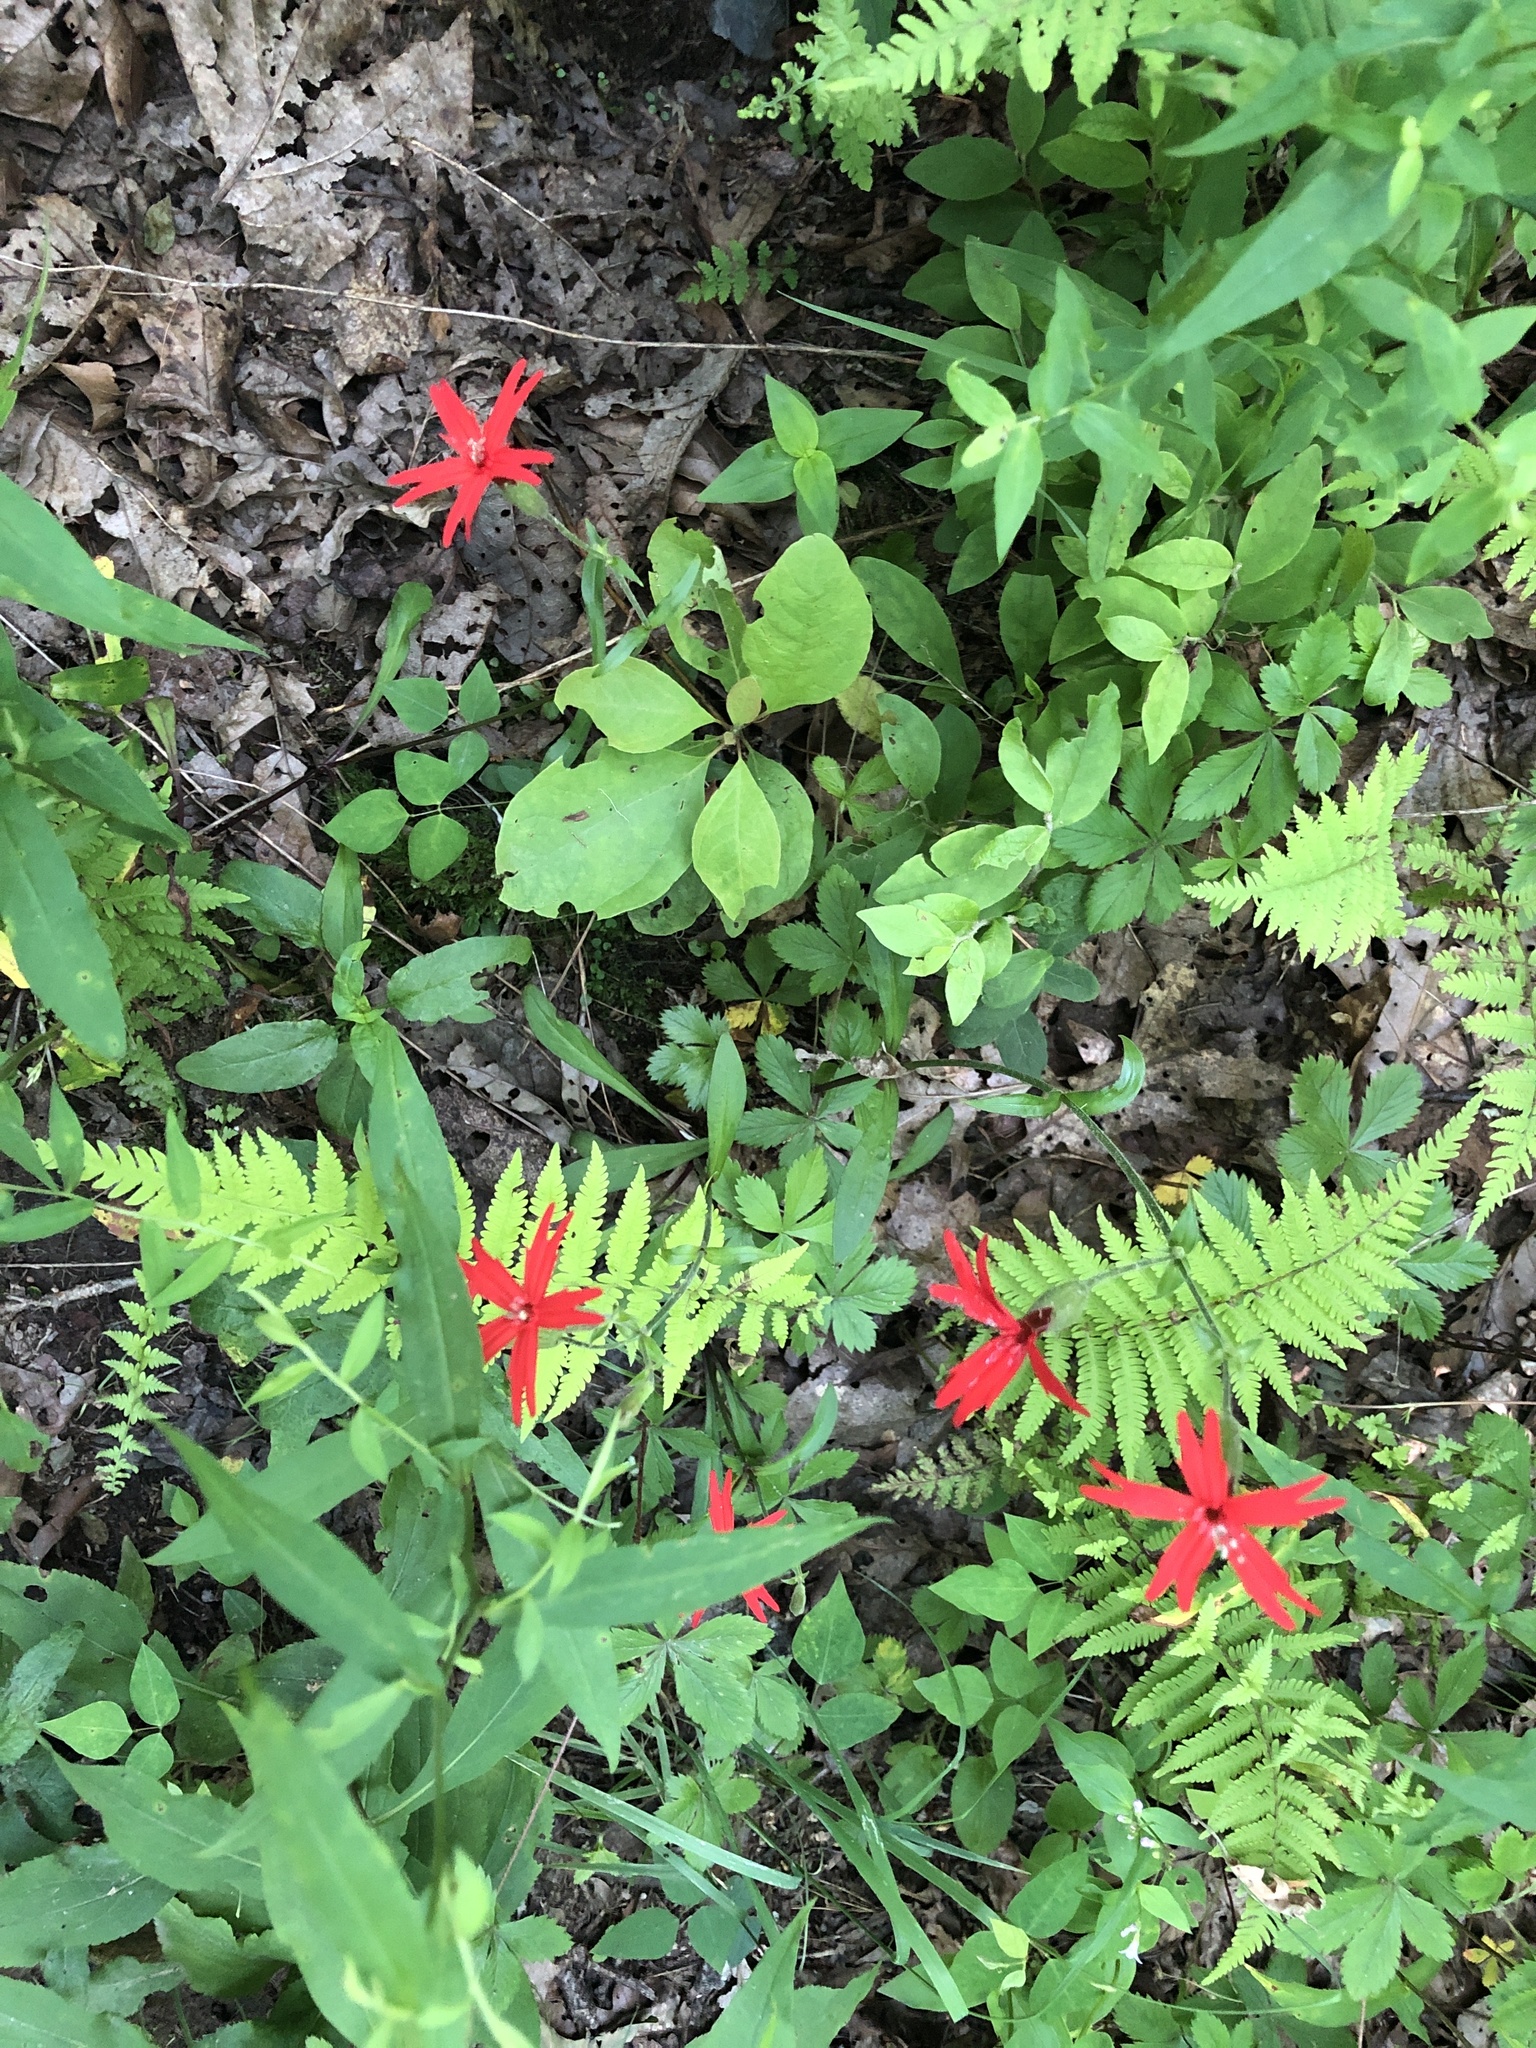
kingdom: Plantae
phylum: Tracheophyta
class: Magnoliopsida
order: Caryophyllales
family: Caryophyllaceae
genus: Silene
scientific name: Silene virginica
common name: Fire-pink
